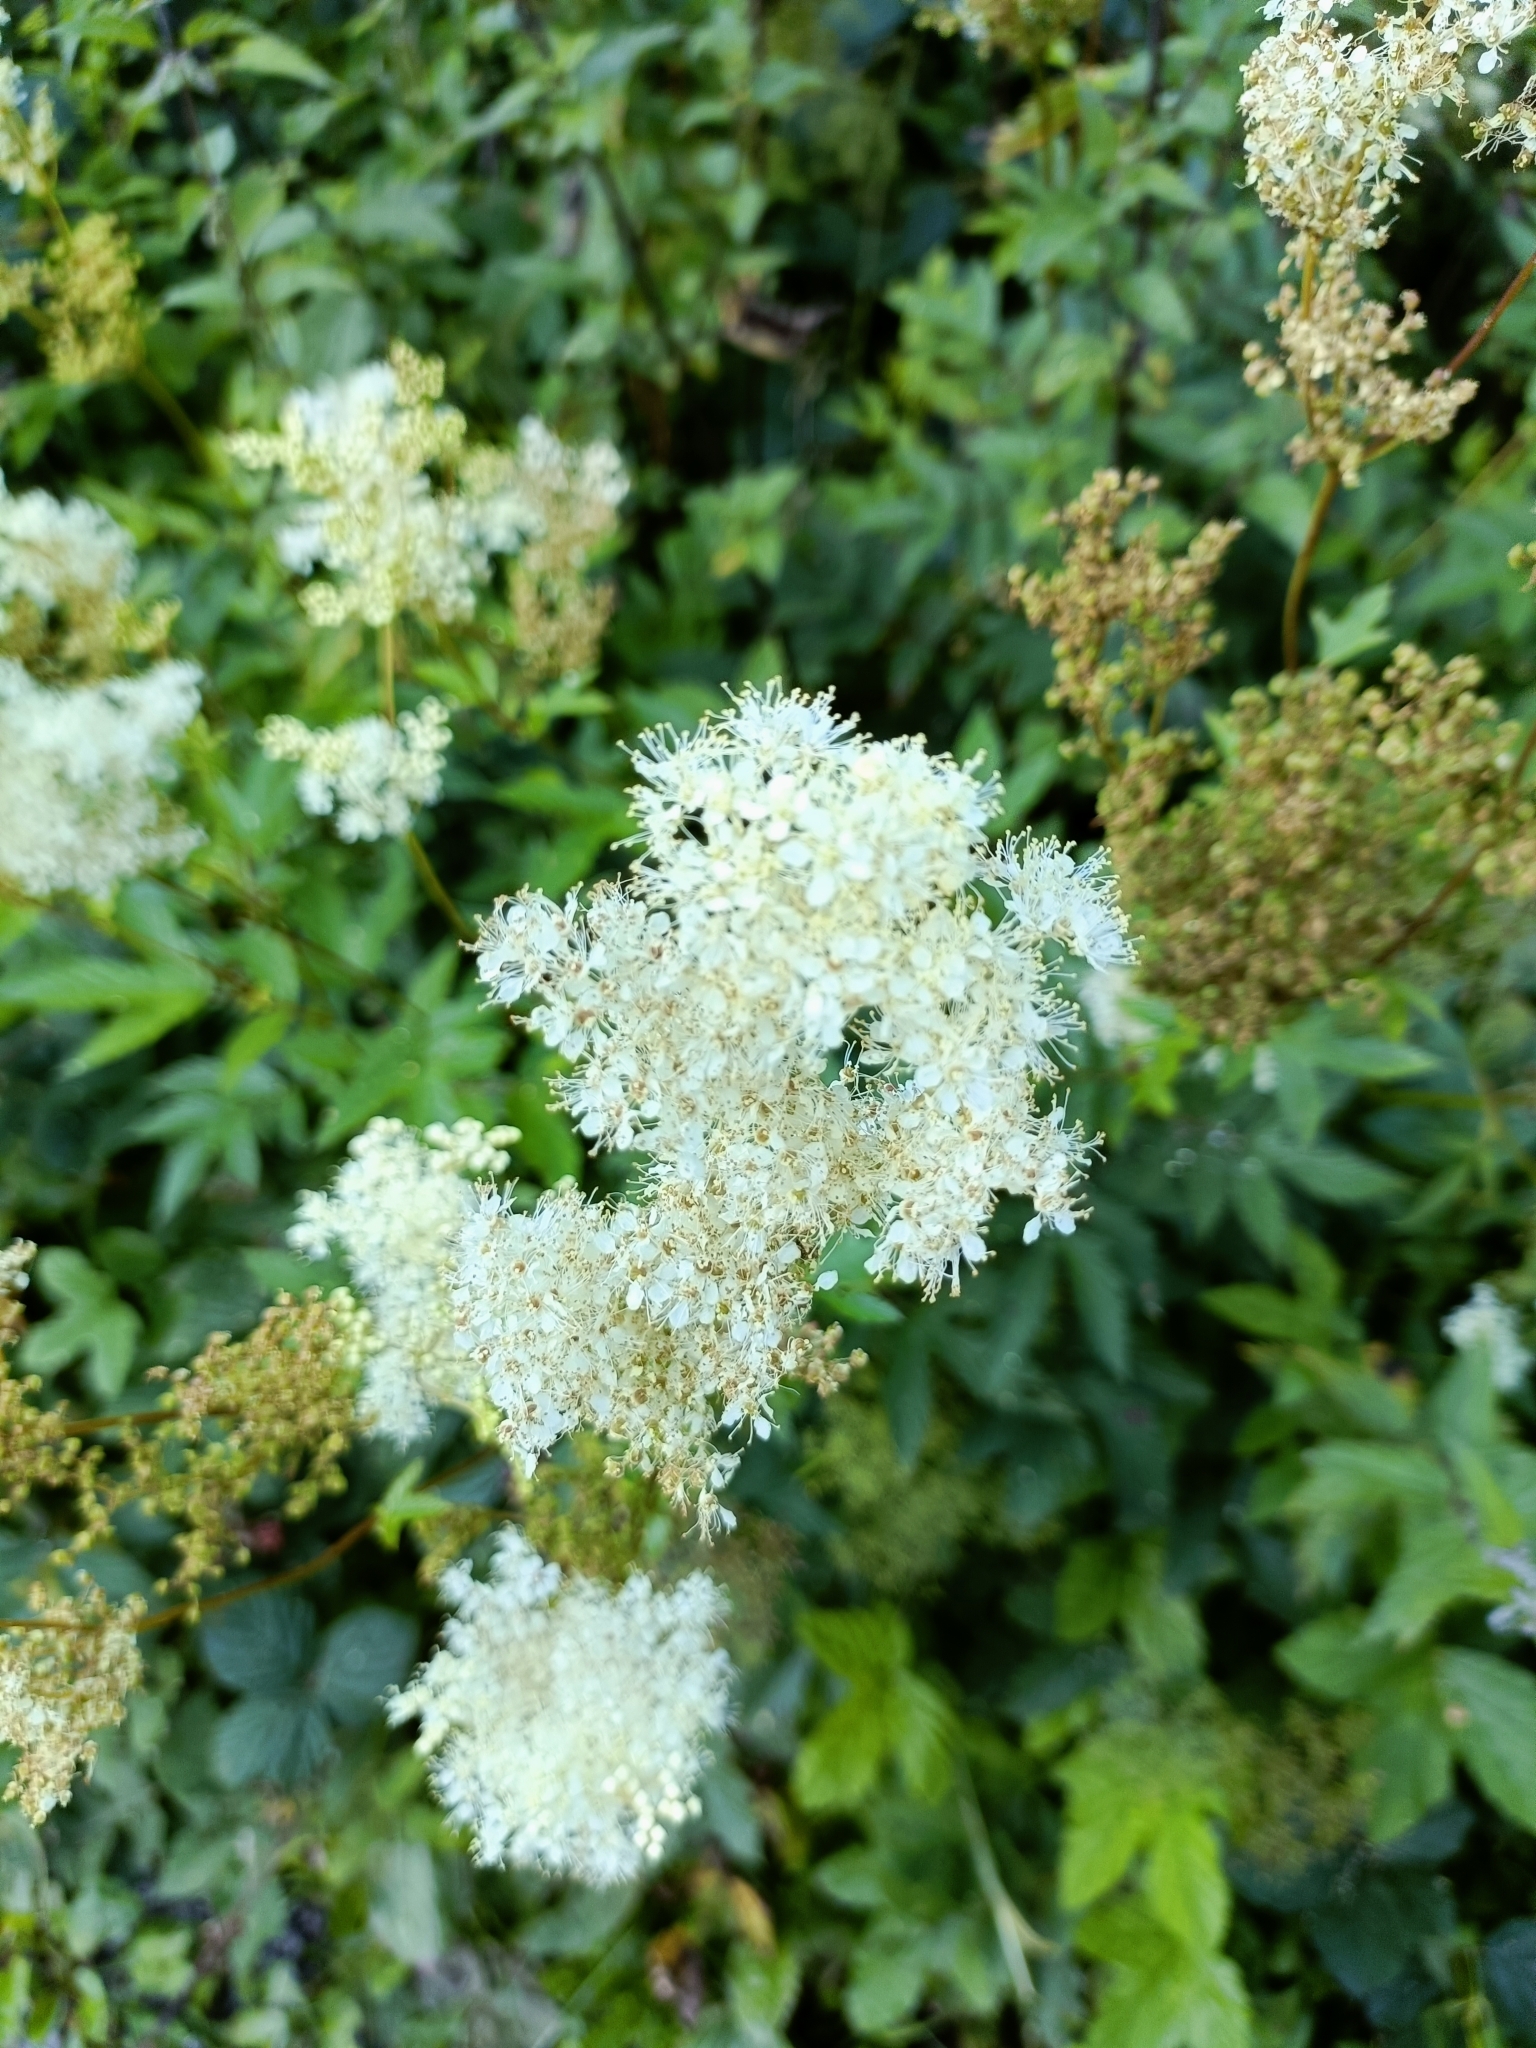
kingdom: Plantae
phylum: Tracheophyta
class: Magnoliopsida
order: Rosales
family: Rosaceae
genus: Filipendula
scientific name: Filipendula ulmaria
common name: Meadowsweet
